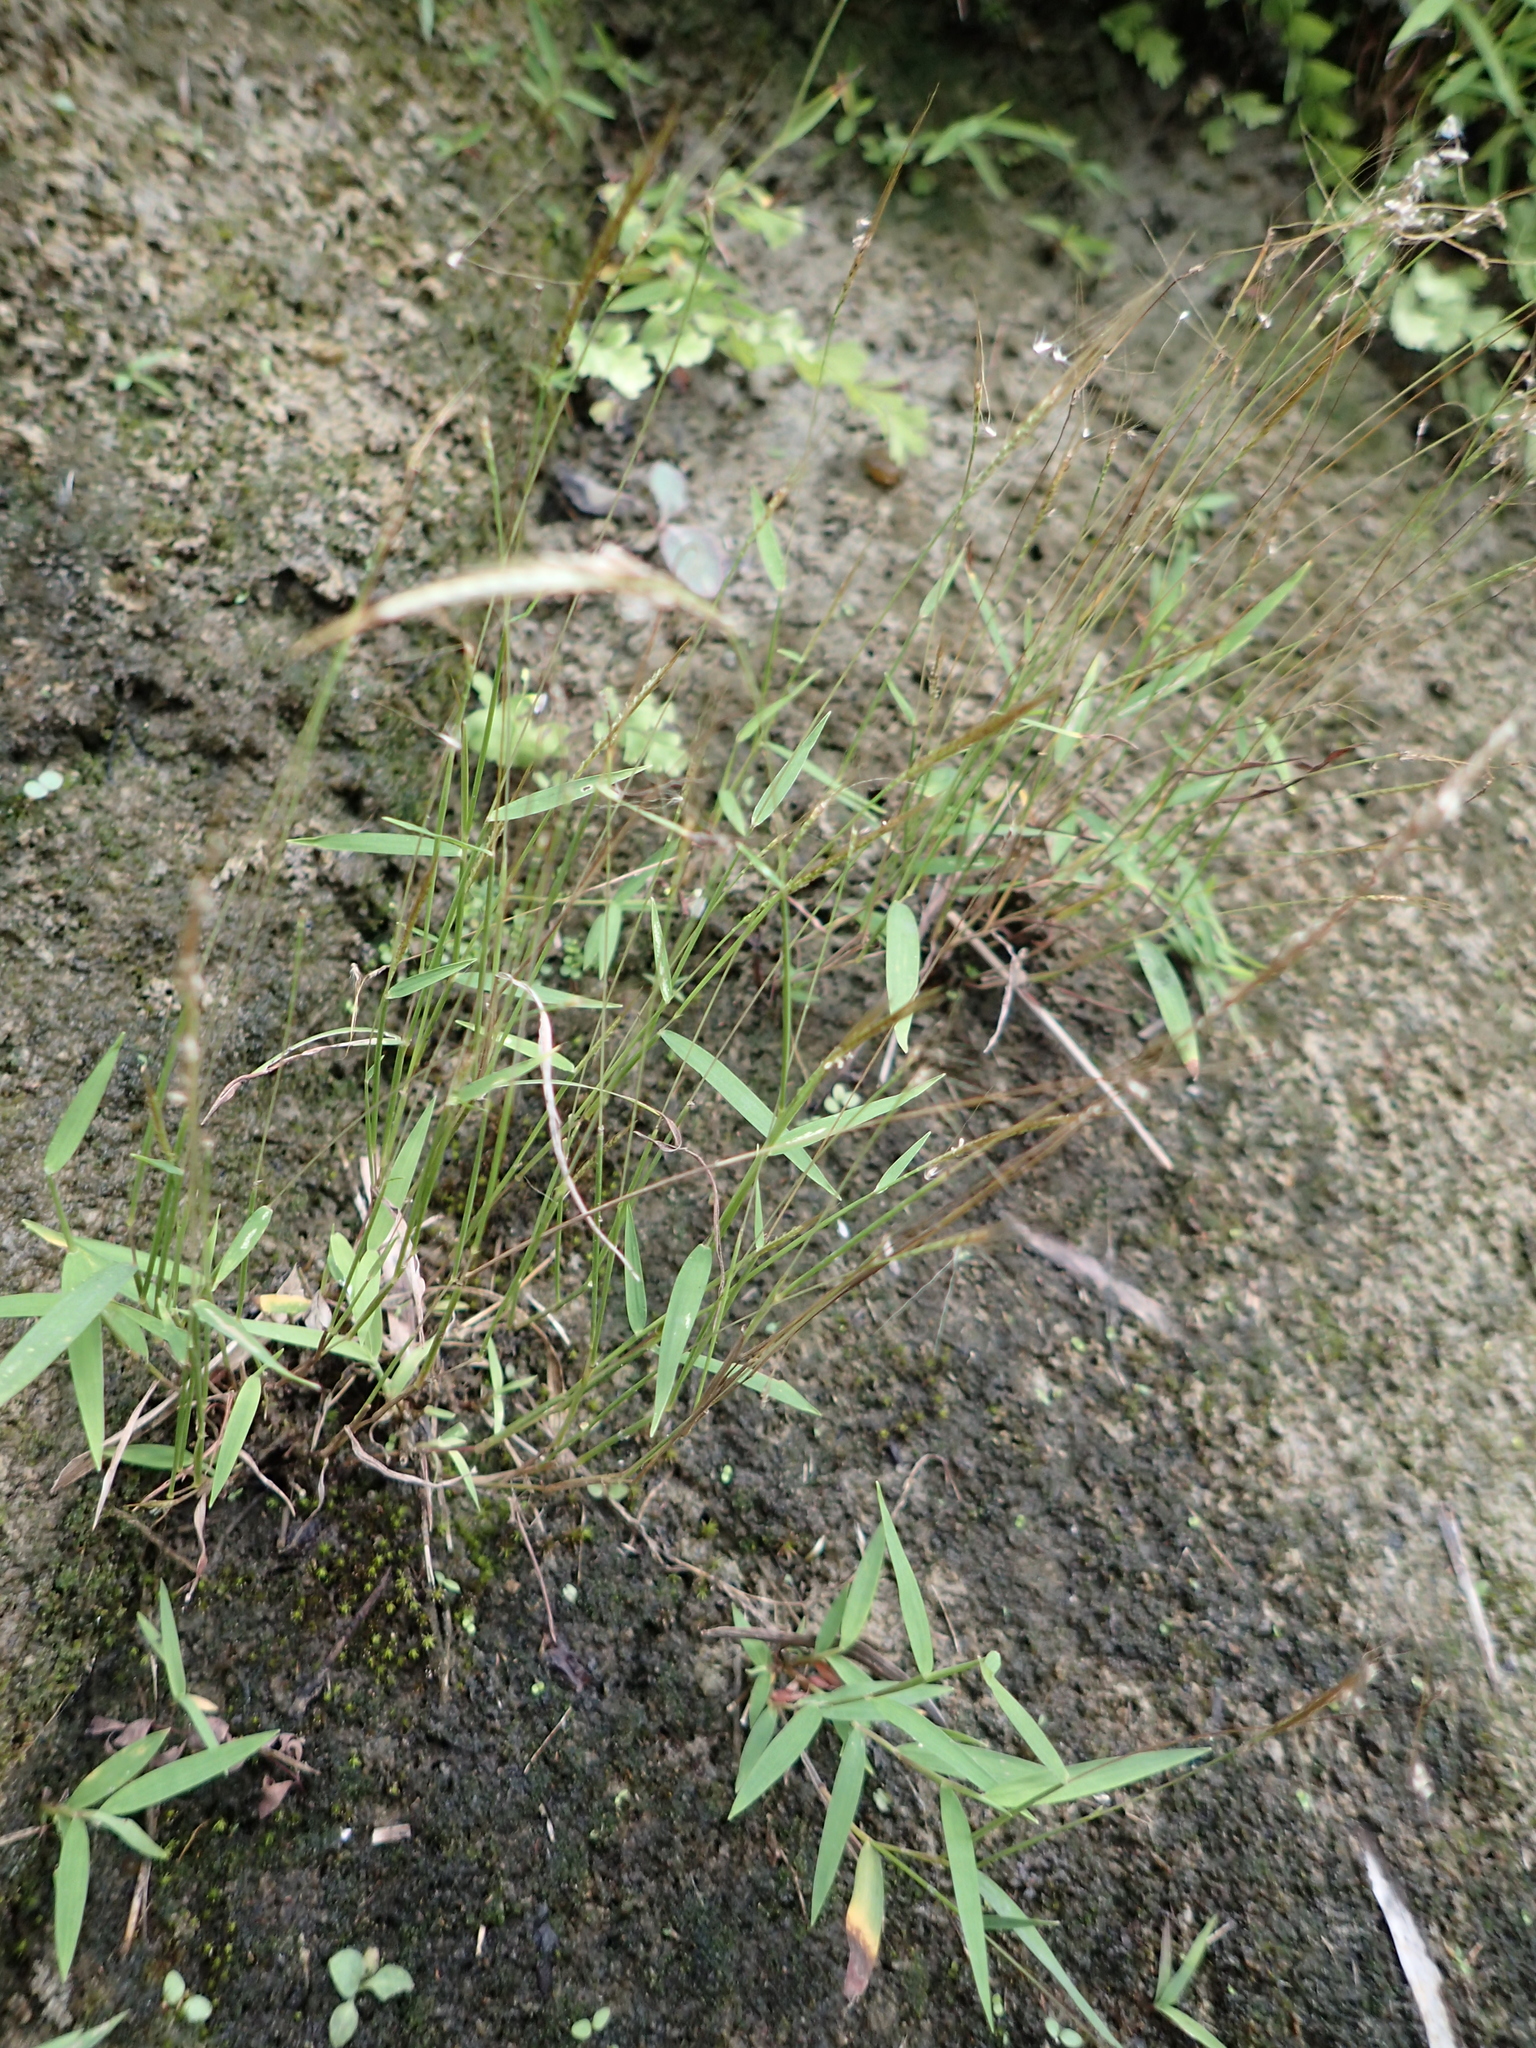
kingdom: Plantae
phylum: Tracheophyta
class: Liliopsida
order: Poales
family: Poaceae
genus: Pogonatherum
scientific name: Pogonatherum crinitum
